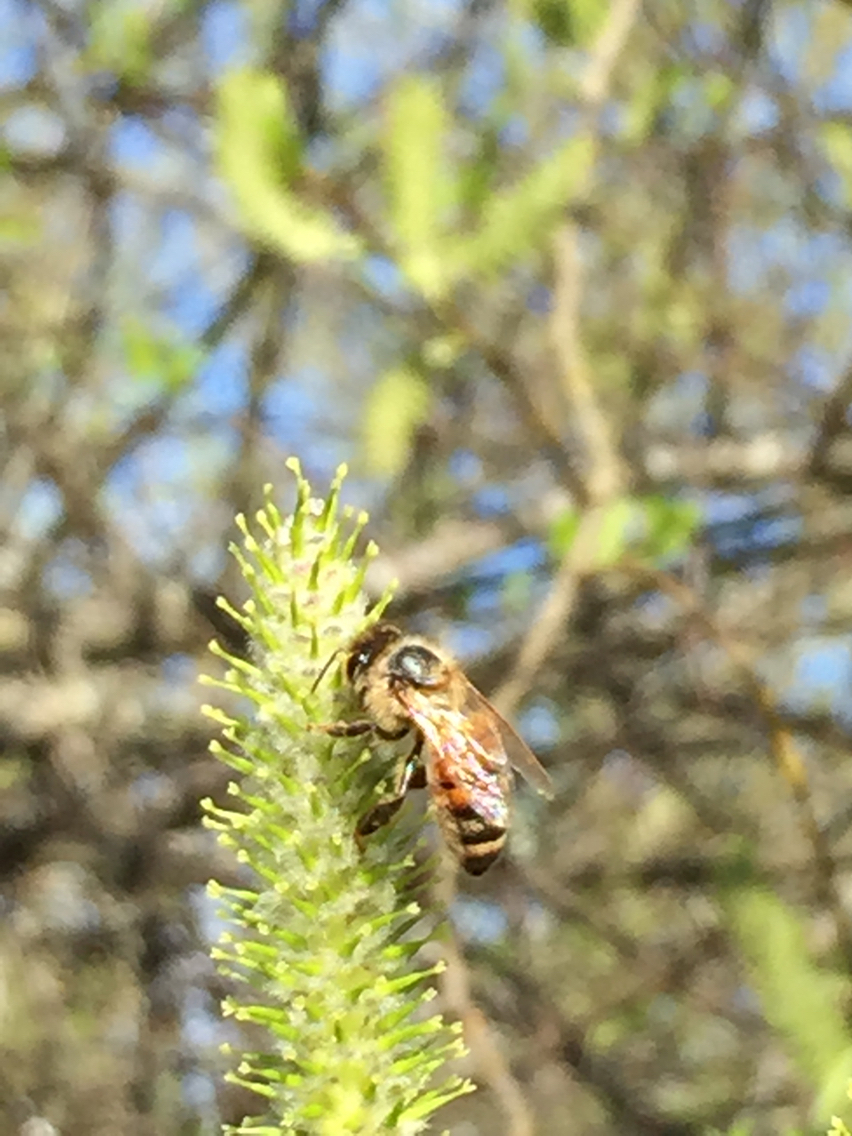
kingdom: Animalia
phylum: Arthropoda
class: Insecta
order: Hymenoptera
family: Apidae
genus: Apis
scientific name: Apis mellifera
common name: Honey bee
